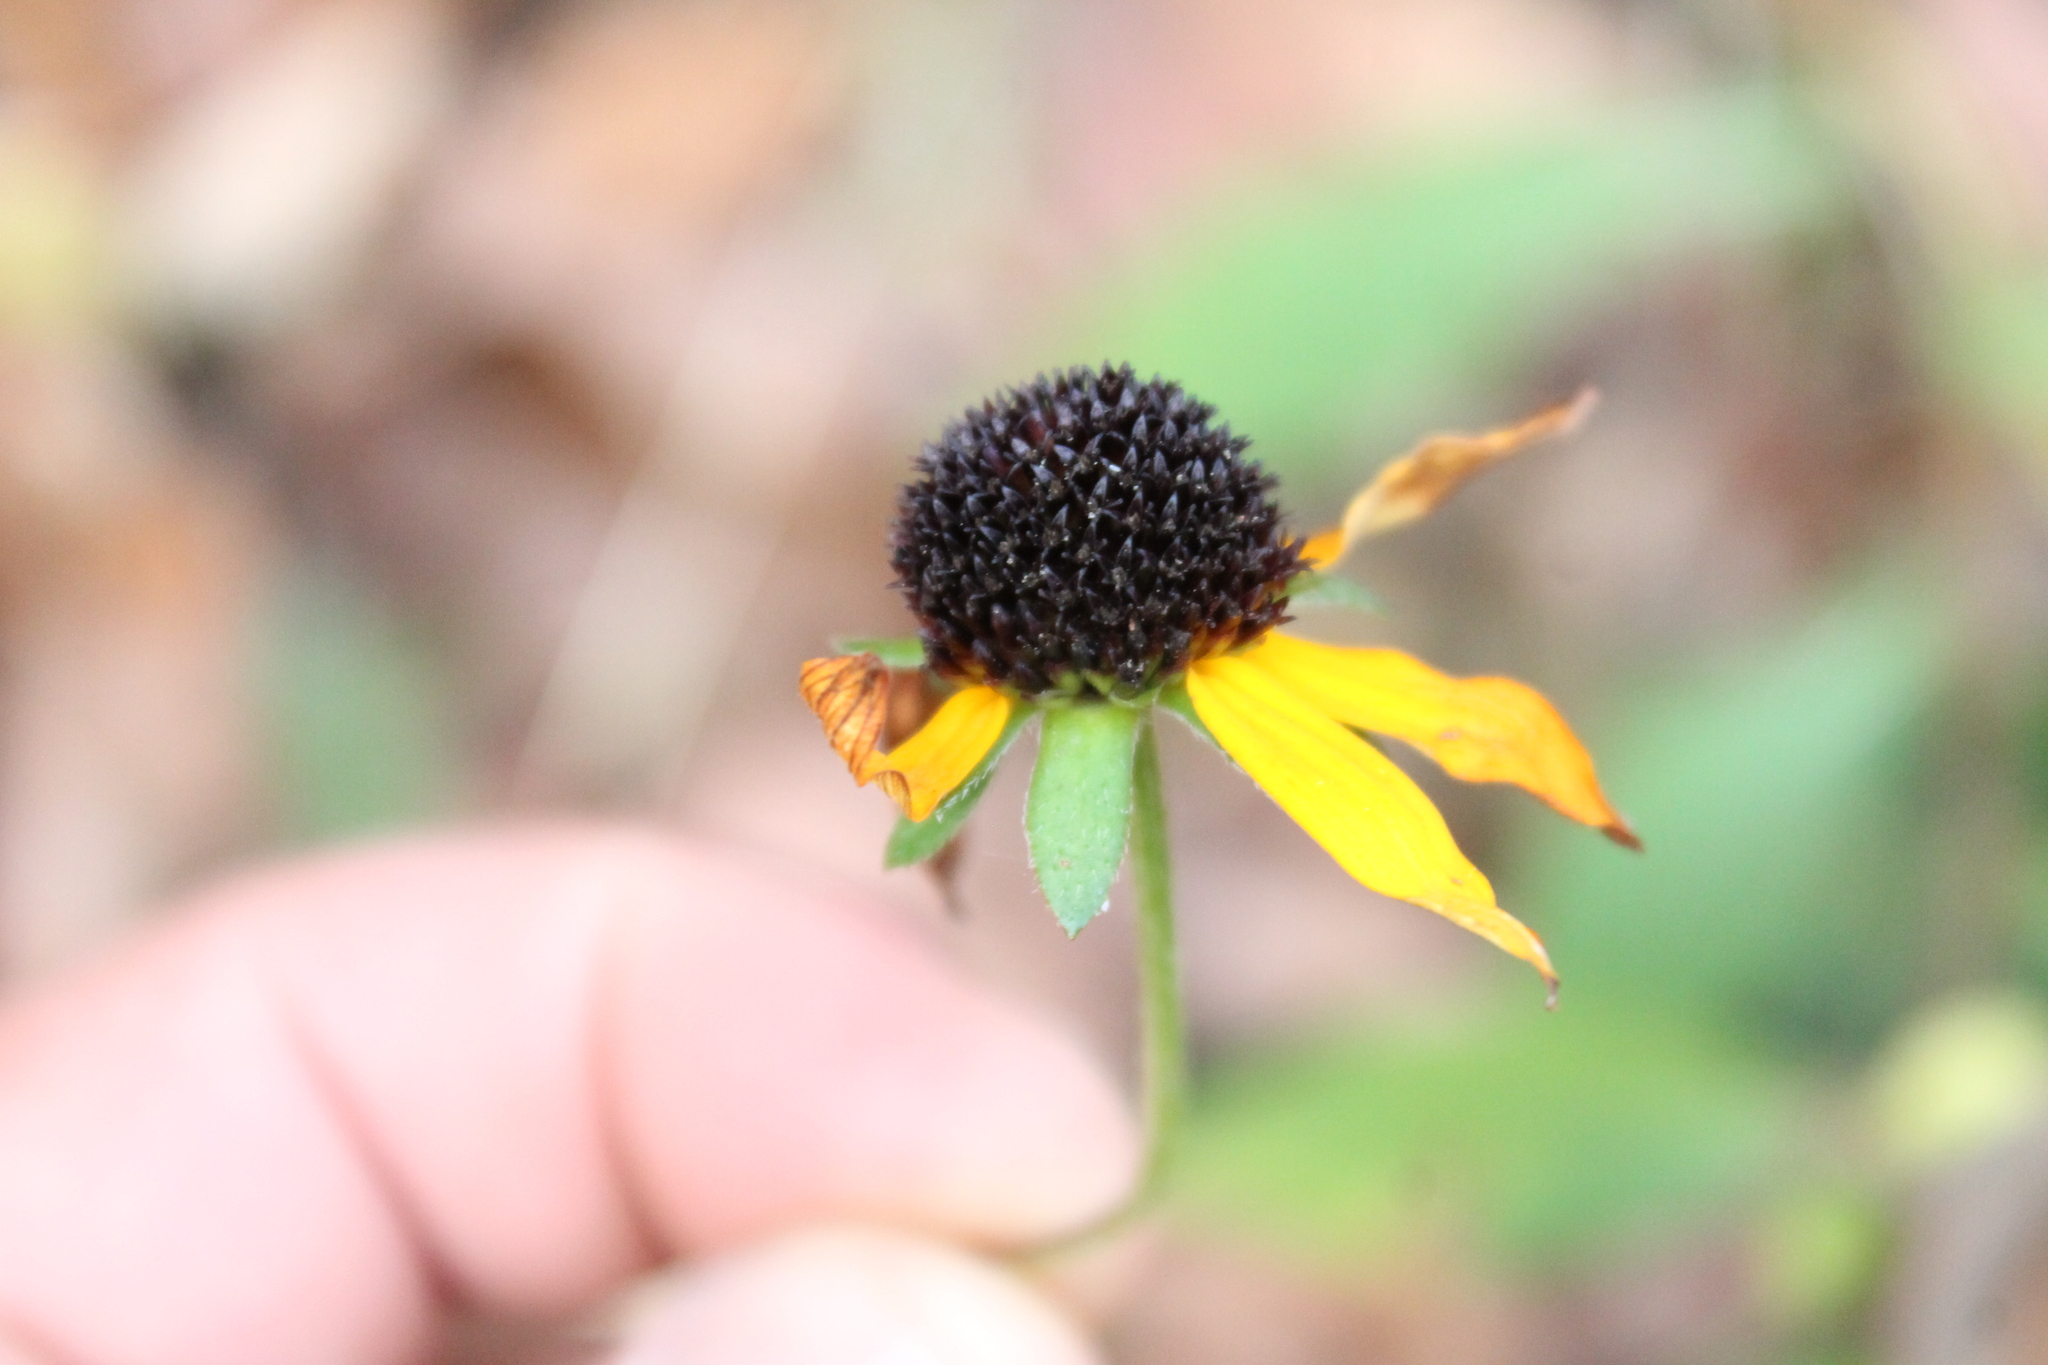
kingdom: Plantae
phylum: Tracheophyta
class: Magnoliopsida
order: Asterales
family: Asteraceae
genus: Rudbeckia
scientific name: Rudbeckia palustris
